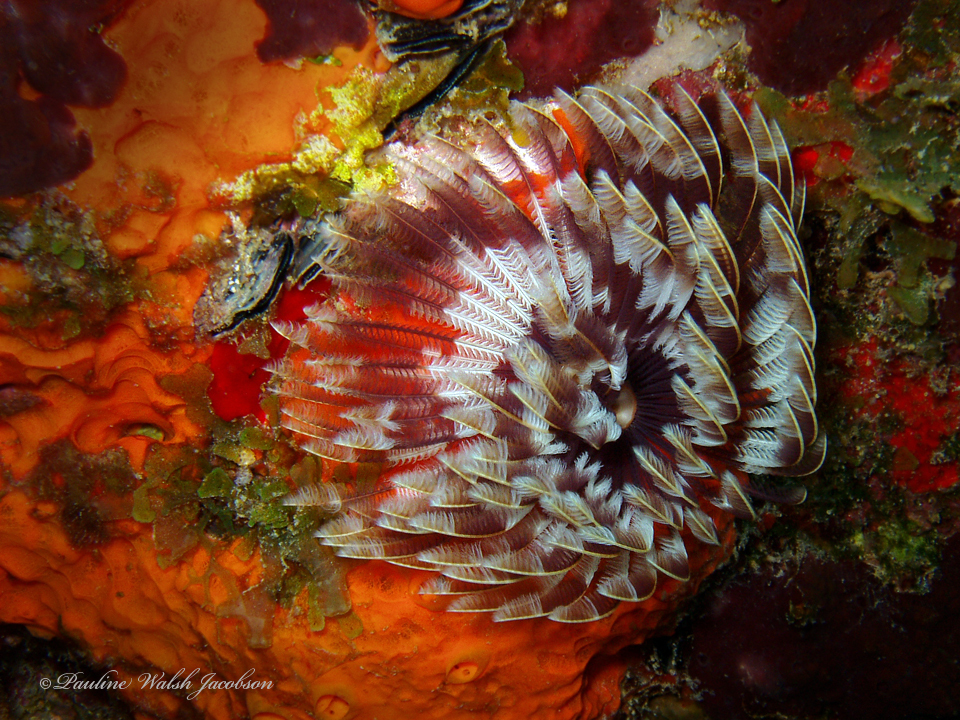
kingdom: Animalia
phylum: Annelida
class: Polychaeta
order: Sabellida
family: Sabellidae
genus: Sabellastarte
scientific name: Sabellastarte magnifica
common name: Giant feather-duster worm
